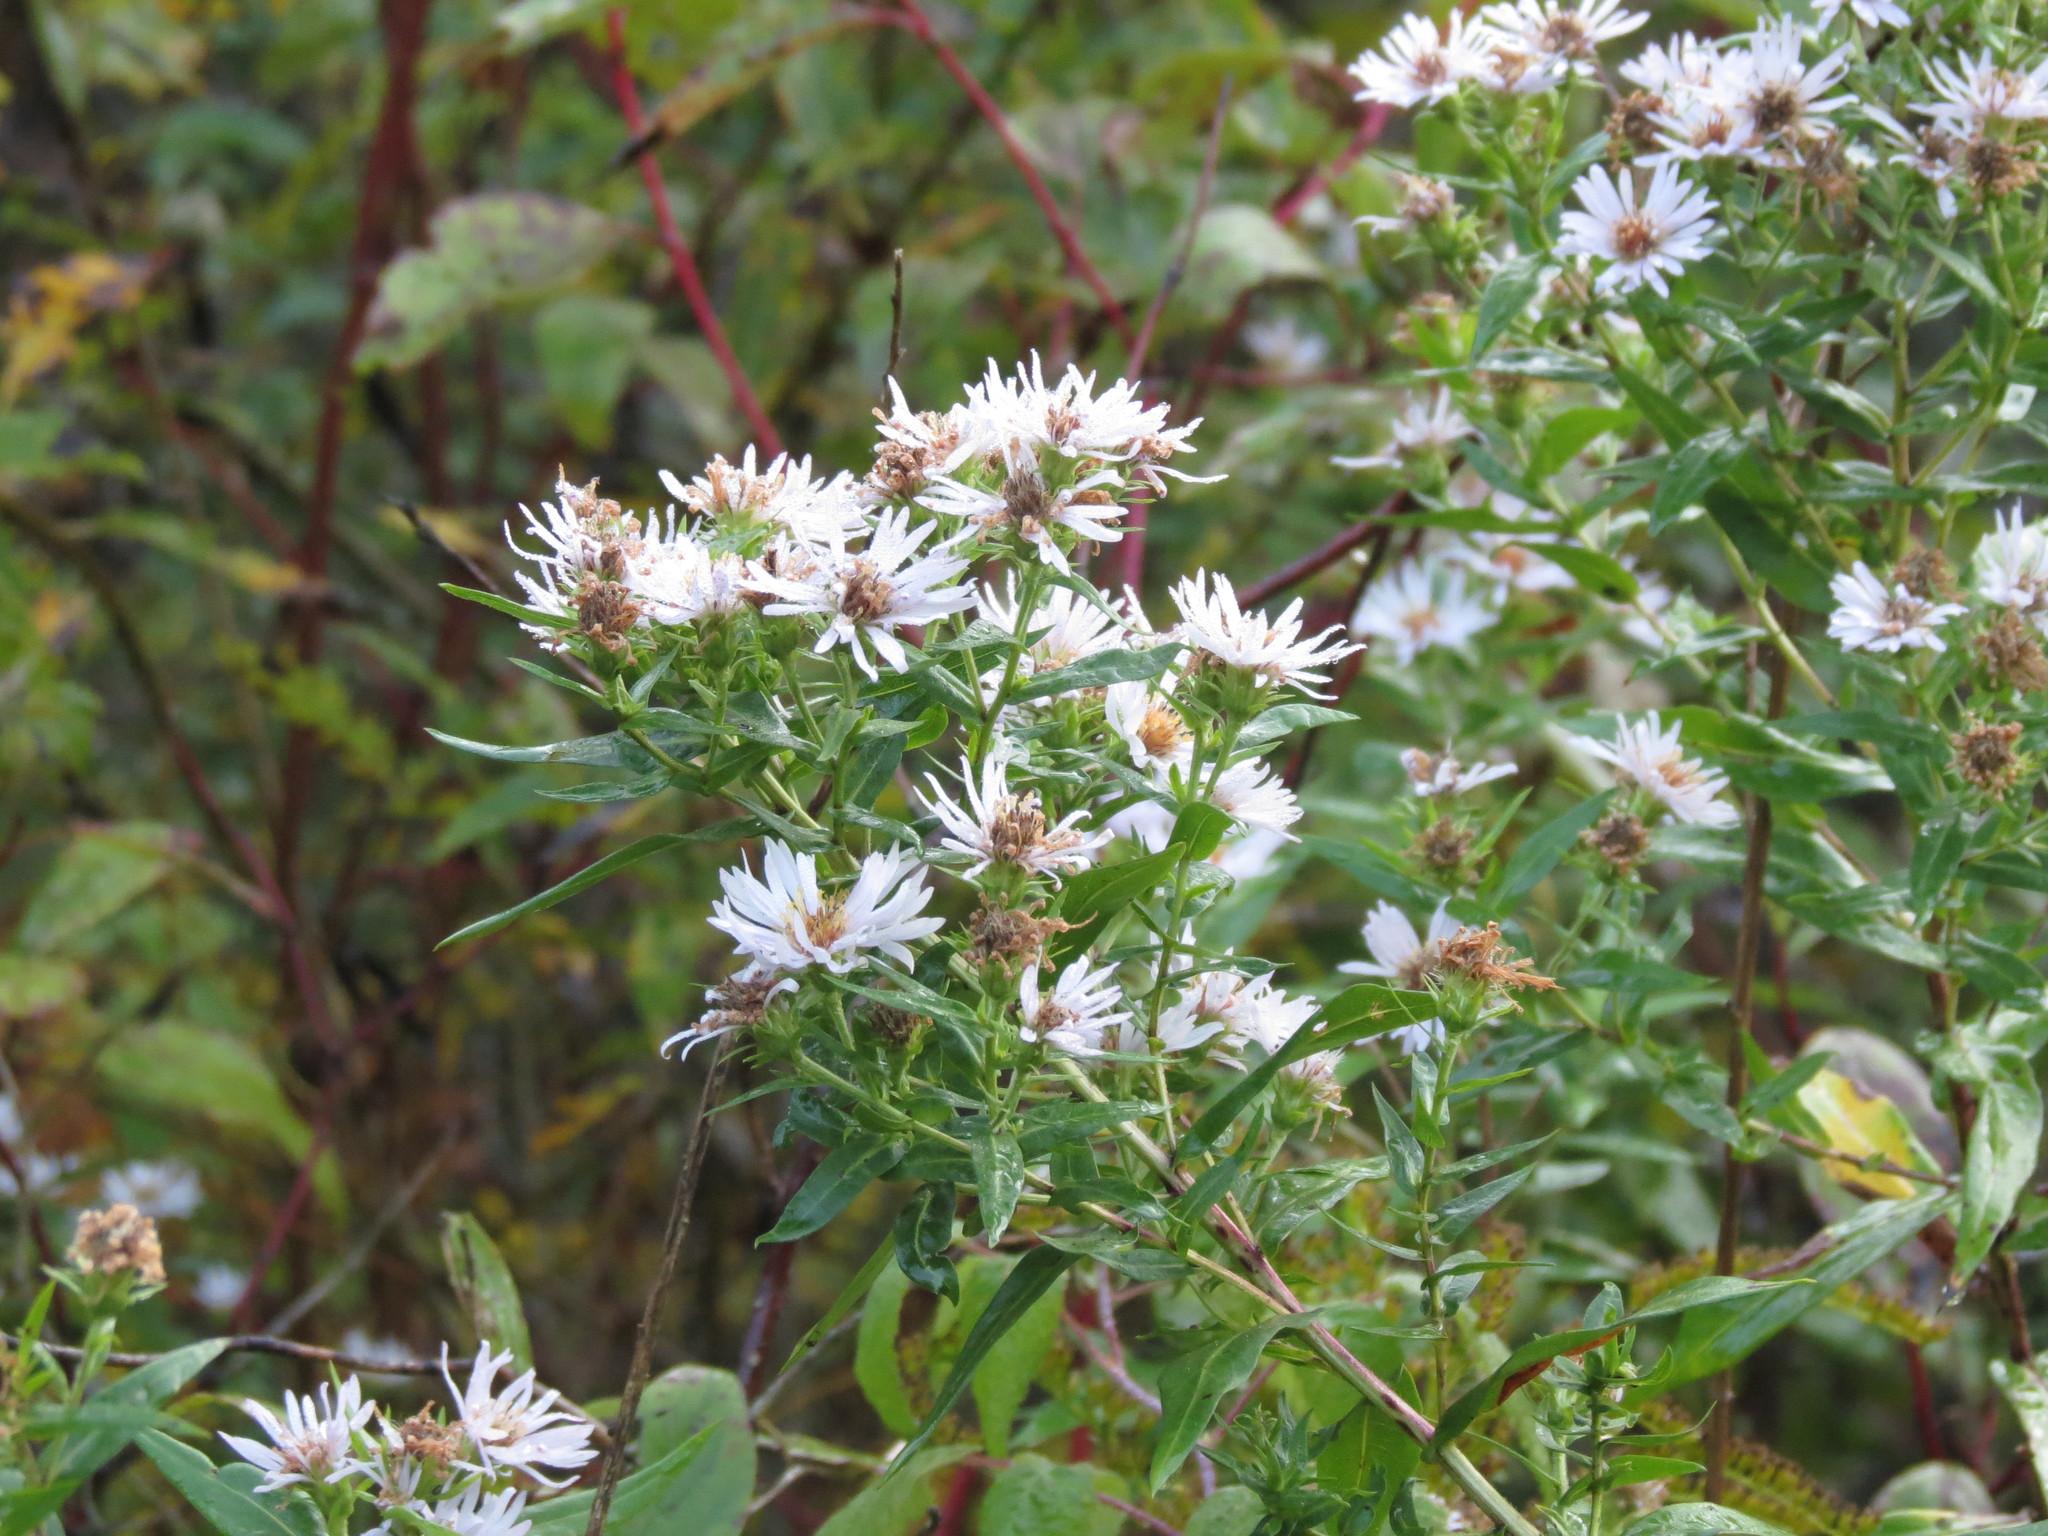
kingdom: Plantae
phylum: Tracheophyta
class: Magnoliopsida
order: Asterales
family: Asteraceae
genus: Symphyotrichum
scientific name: Symphyotrichum firmum
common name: Shining aster
